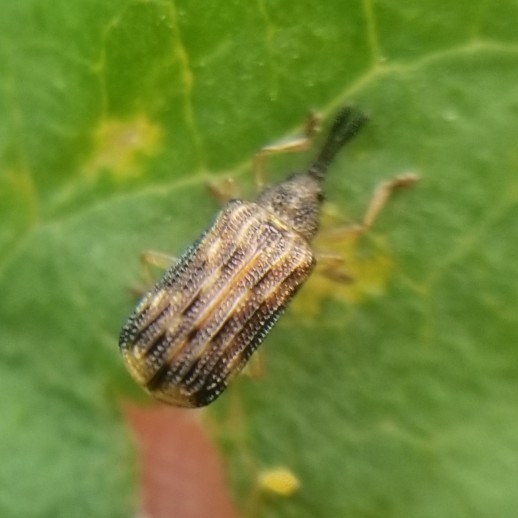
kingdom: Animalia
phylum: Arthropoda
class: Insecta
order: Coleoptera
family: Chrysomelidae
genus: Sumitrosis
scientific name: Sumitrosis inaequalis
